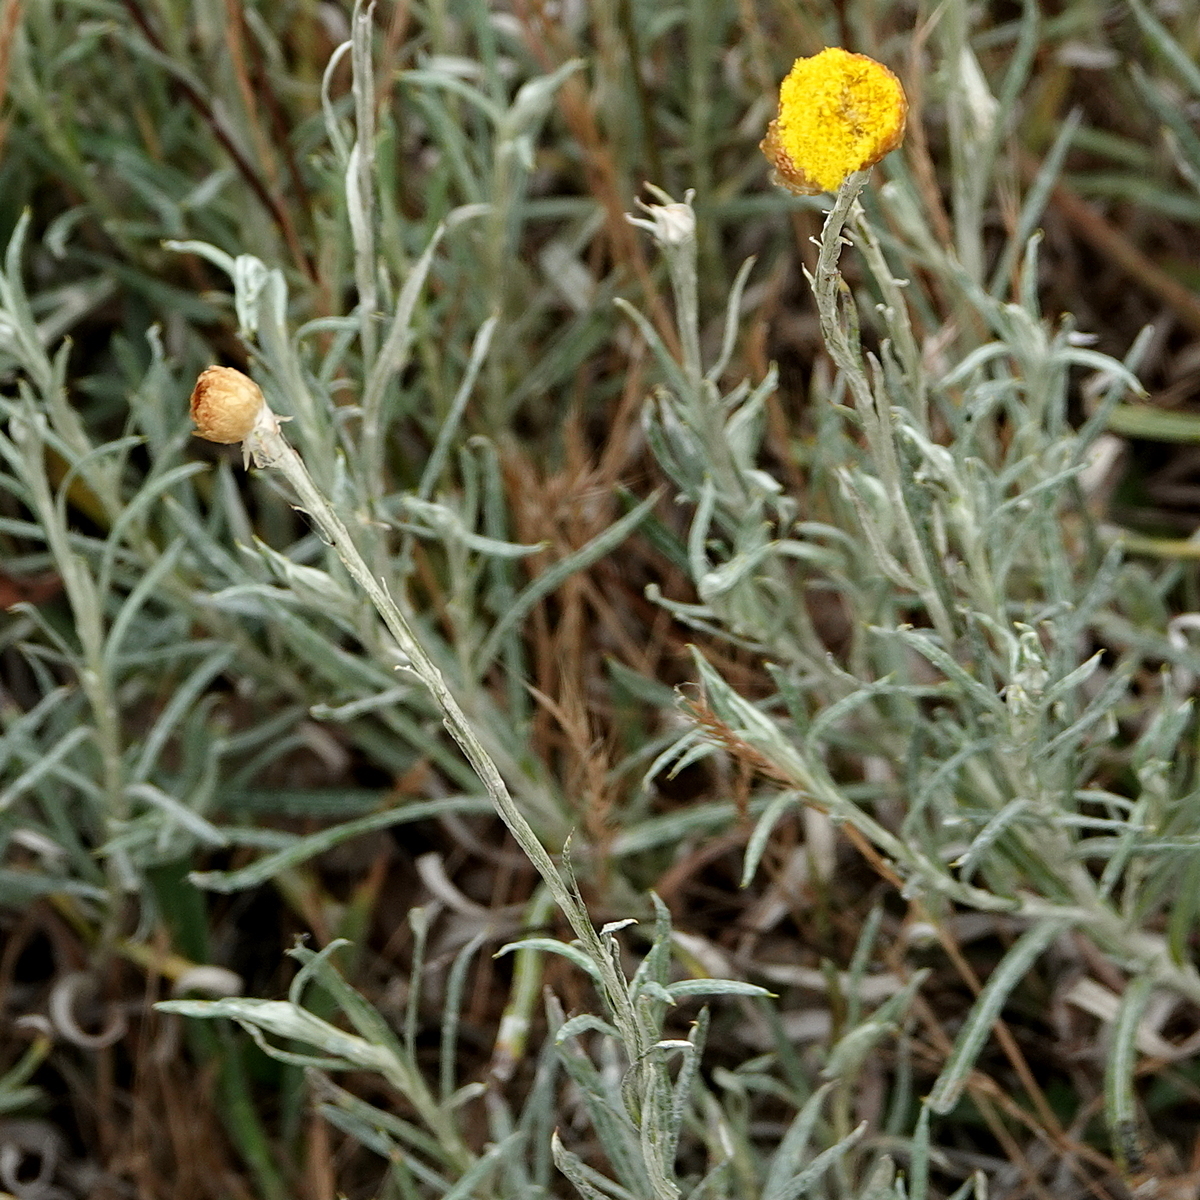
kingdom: Plantae
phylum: Tracheophyta
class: Magnoliopsida
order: Asterales
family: Asteraceae
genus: Coronidium
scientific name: Coronidium gunnianum
